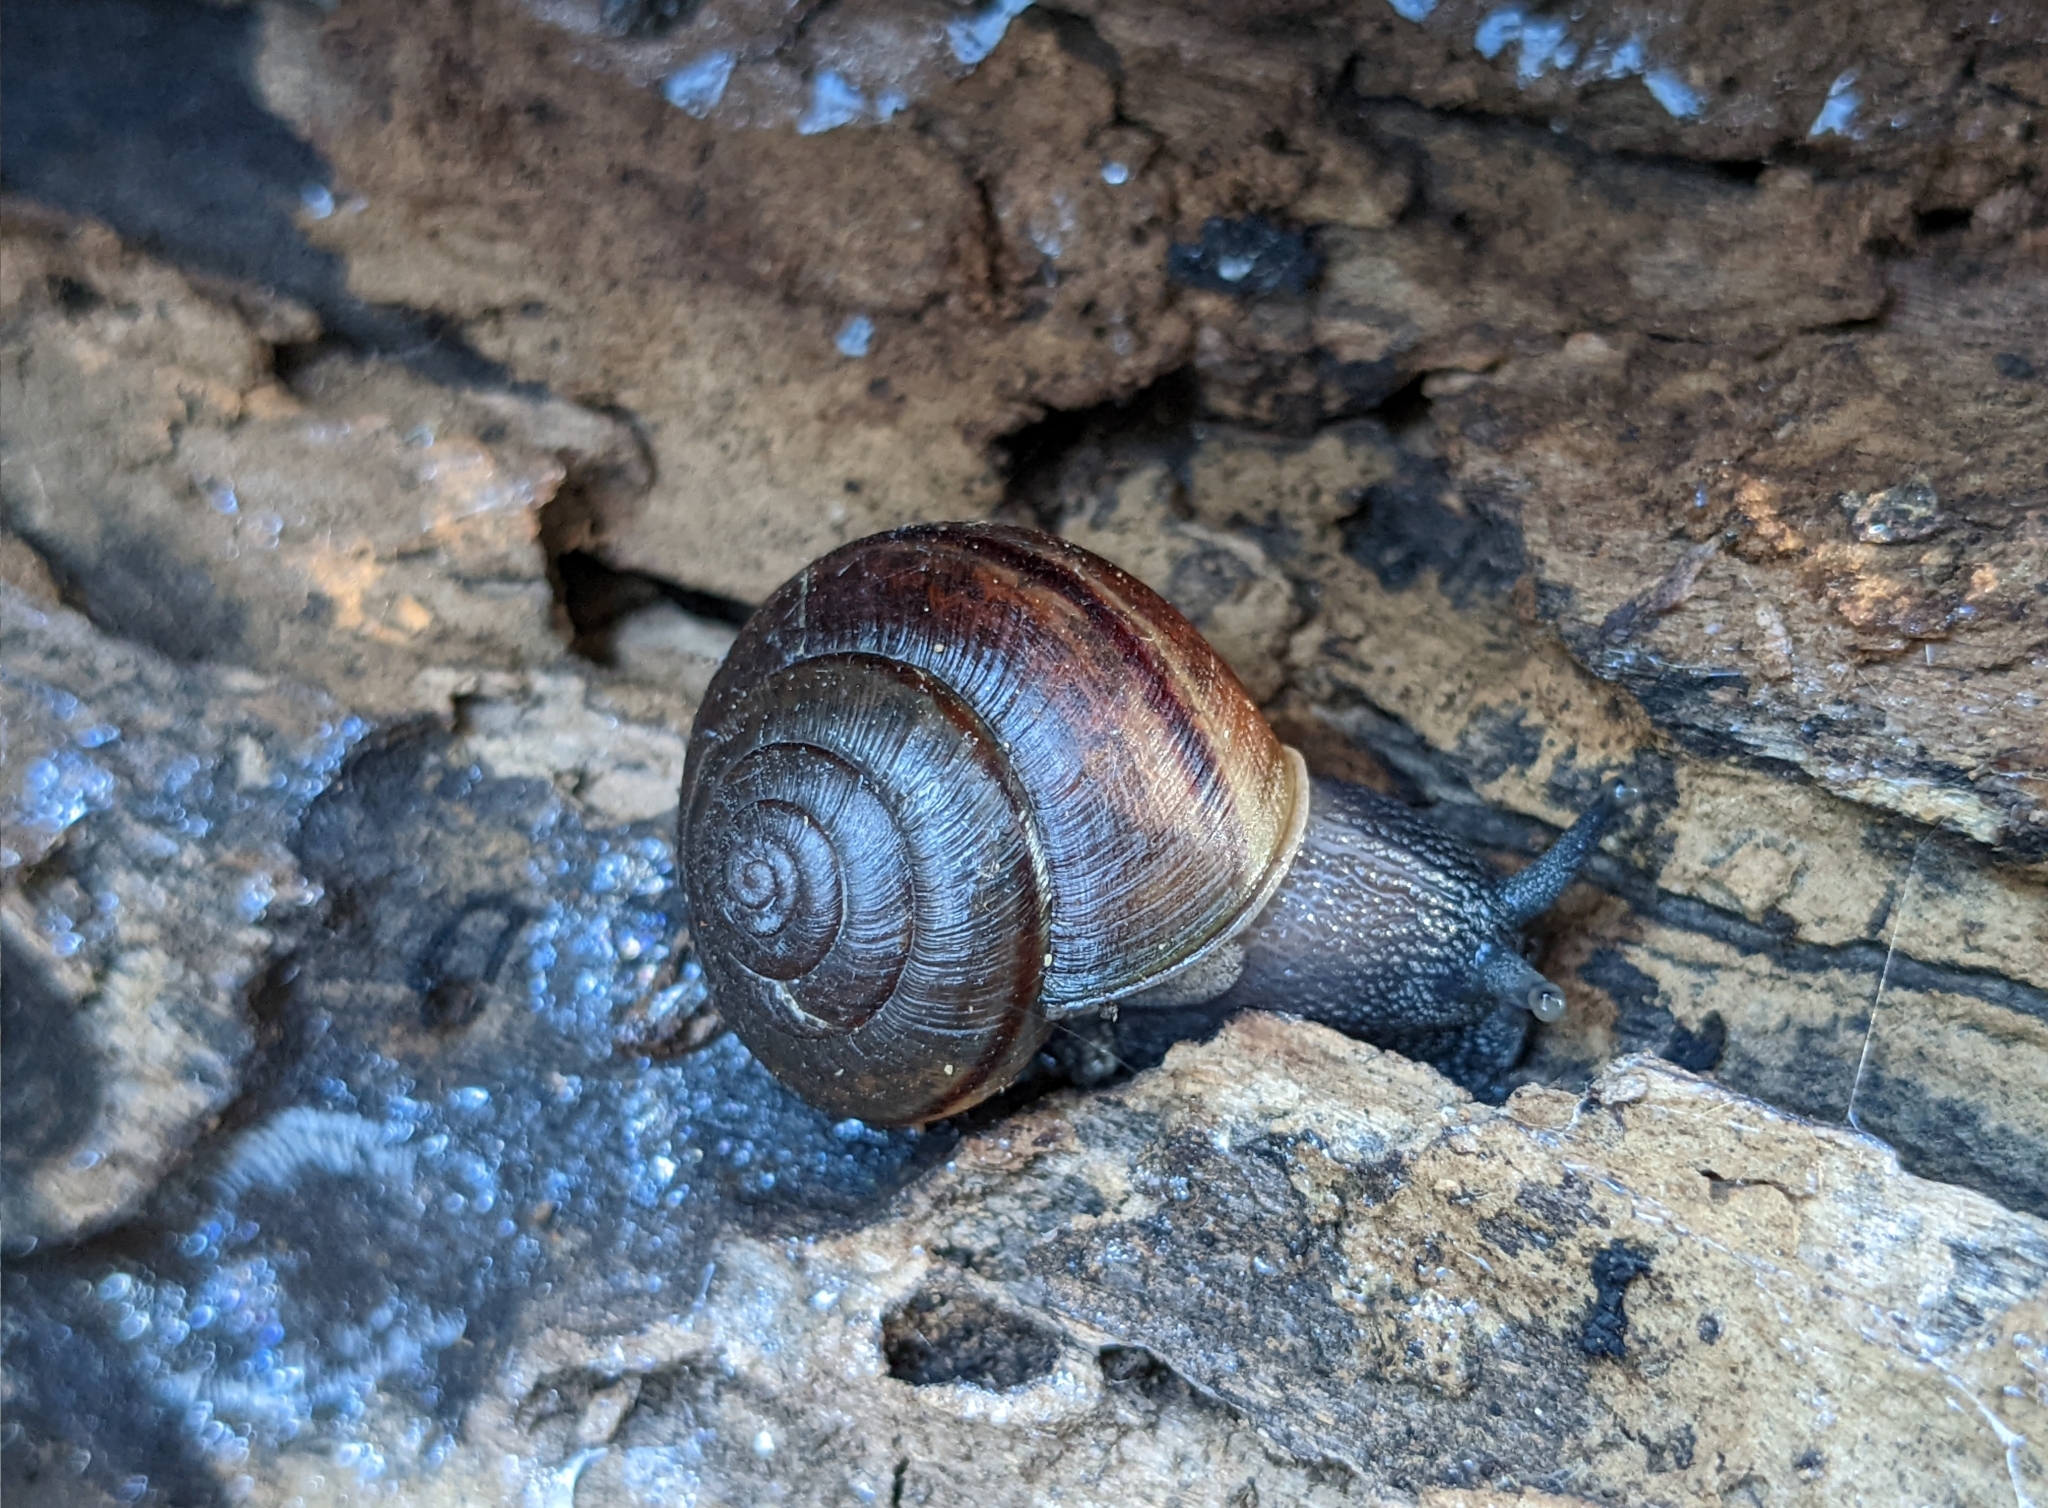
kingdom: Animalia
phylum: Mollusca
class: Gastropoda
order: Stylommatophora
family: Xanthonychidae
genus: Helminthoglypta
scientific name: Helminthoglypta traskii
